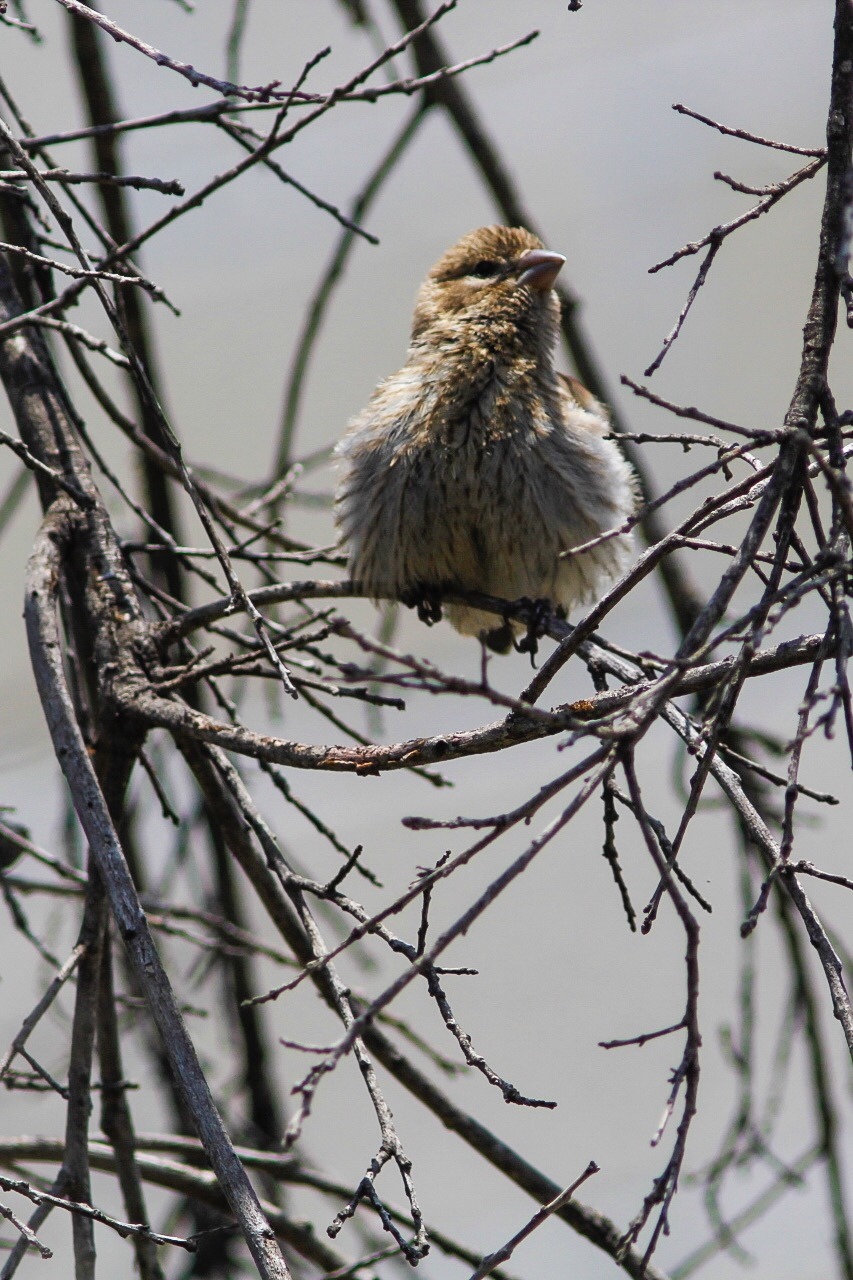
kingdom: Animalia
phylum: Chordata
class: Aves
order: Passeriformes
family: Fringillidae
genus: Haemorhous
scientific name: Haemorhous mexicanus
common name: House finch
